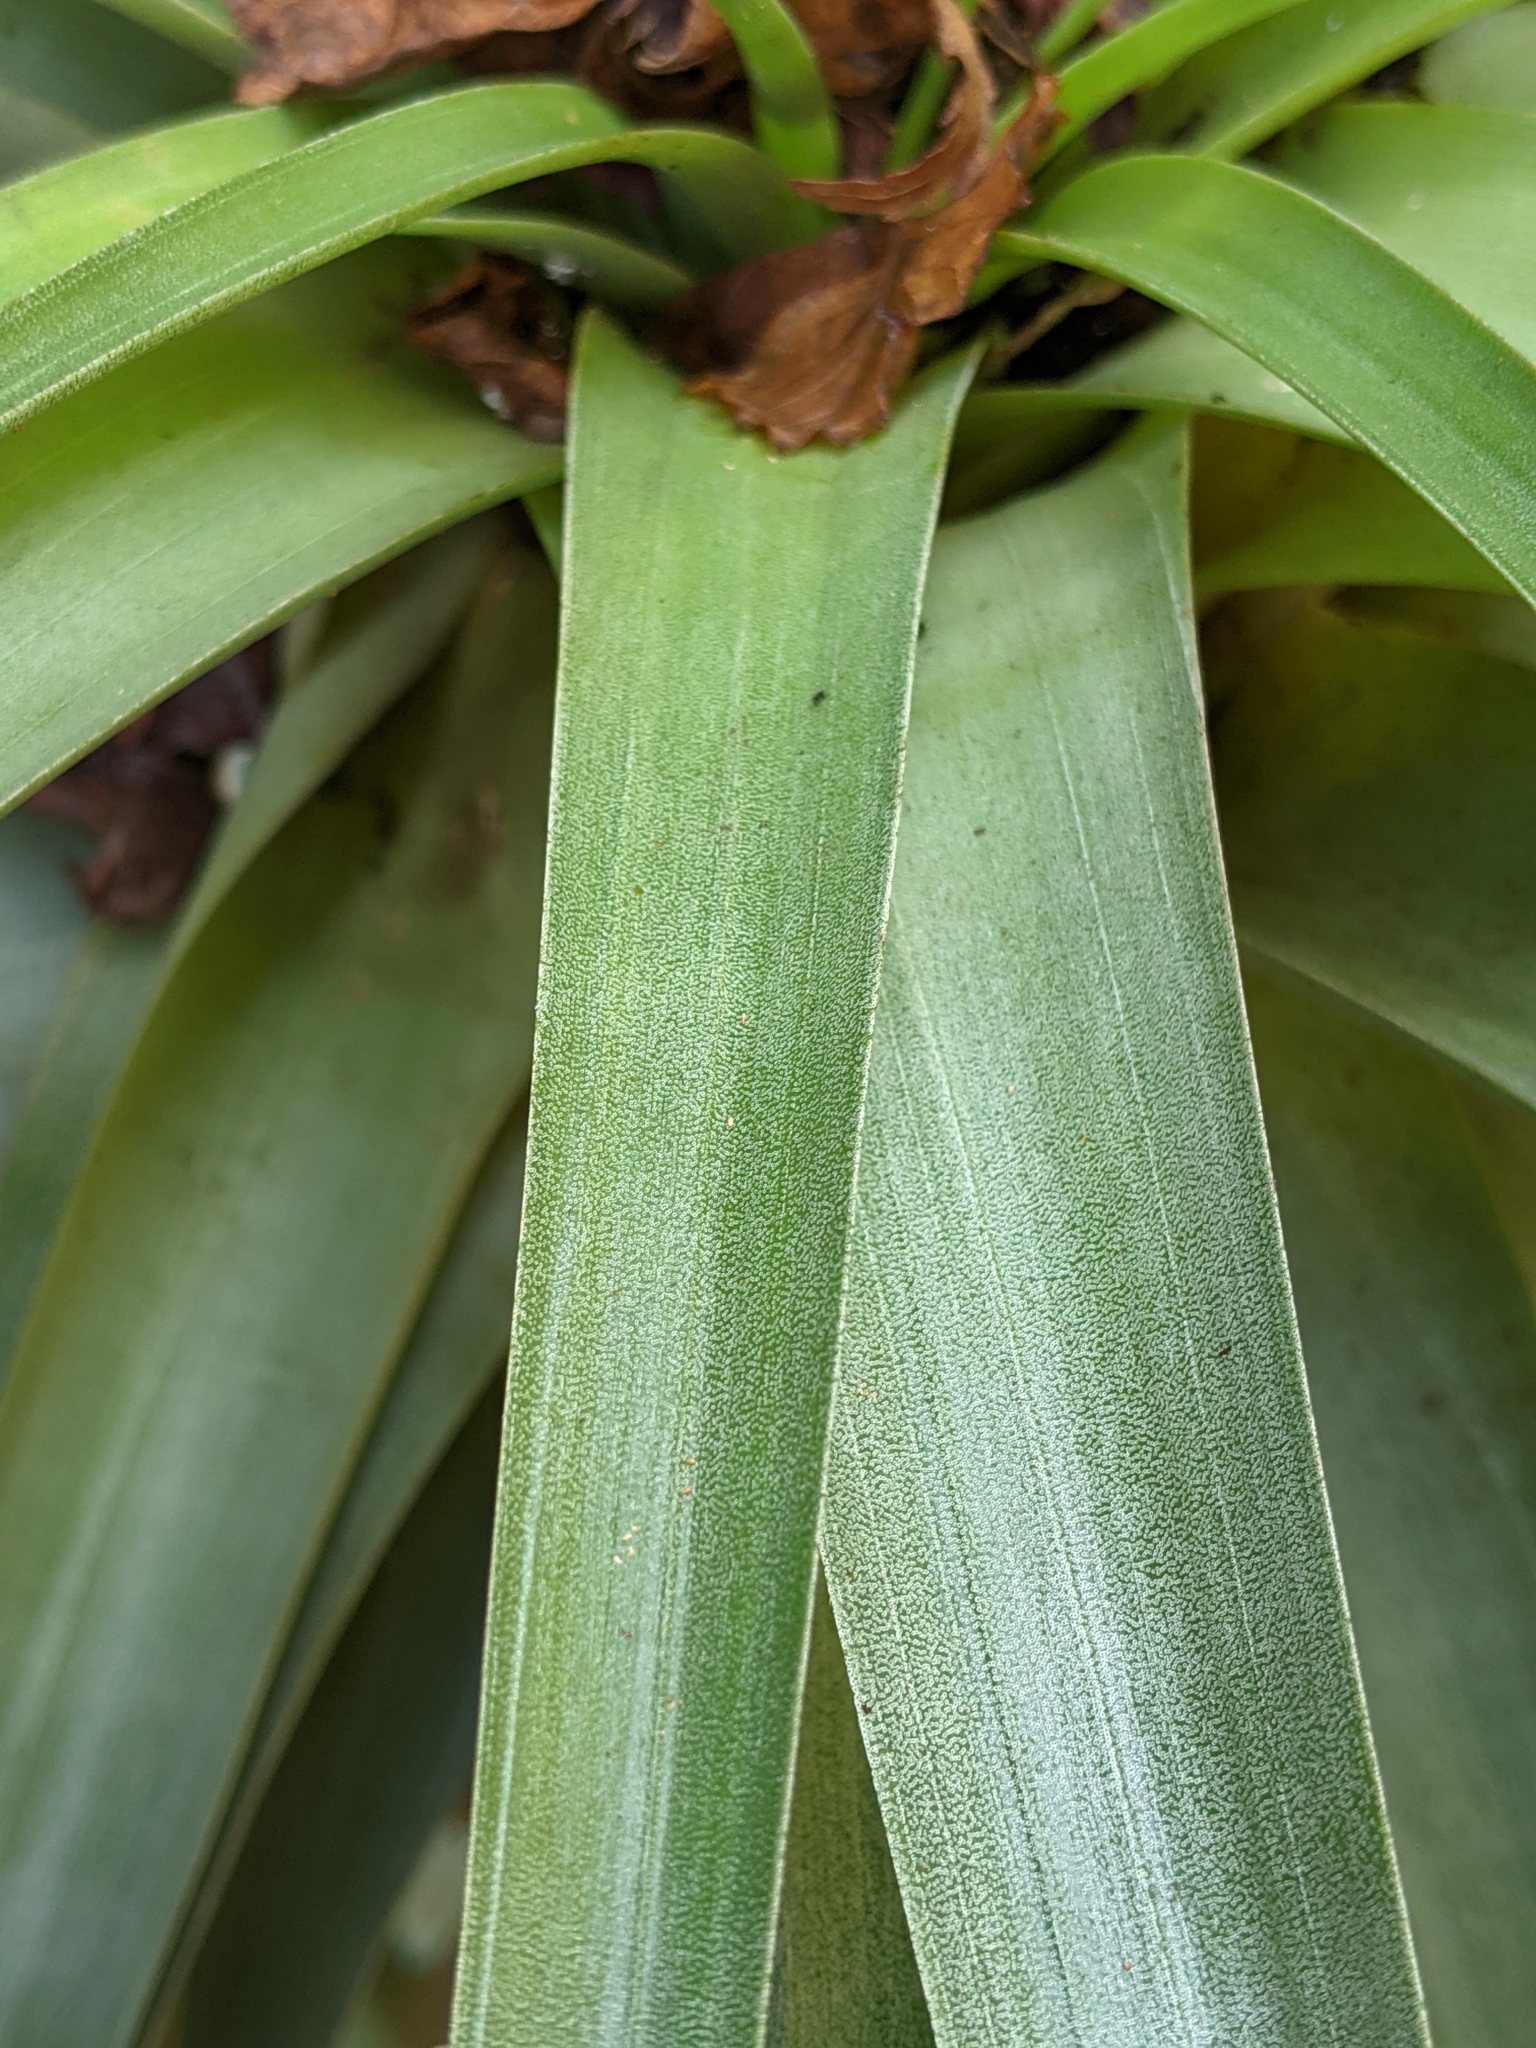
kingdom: Plantae
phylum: Tracheophyta
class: Liliopsida
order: Poales
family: Bromeliaceae
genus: Tillandsia
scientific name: Tillandsia utriculata
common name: Wild pine
